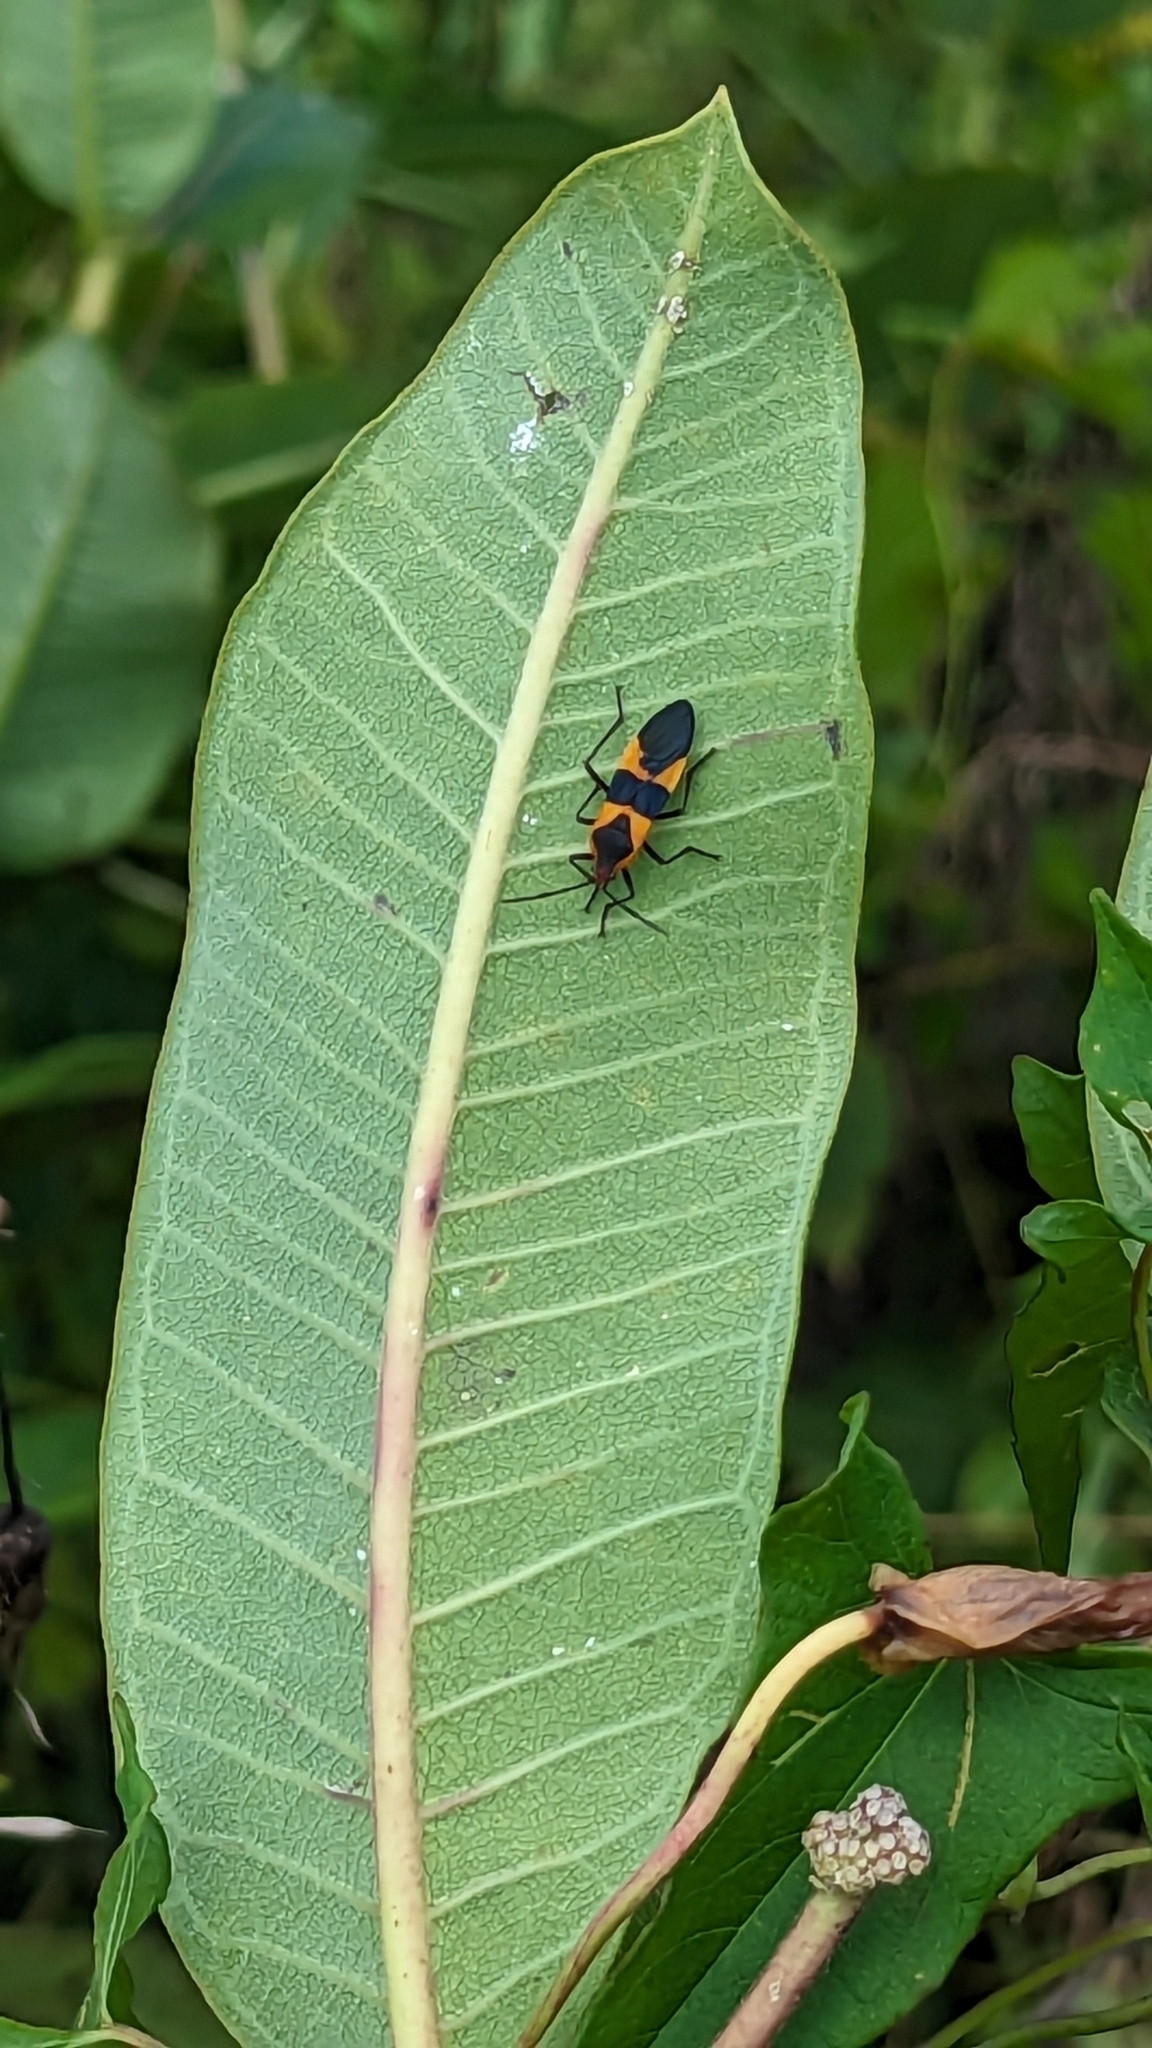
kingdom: Animalia
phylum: Arthropoda
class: Insecta
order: Hemiptera
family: Lygaeidae
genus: Oncopeltus
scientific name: Oncopeltus fasciatus
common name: Large milkweed bug
